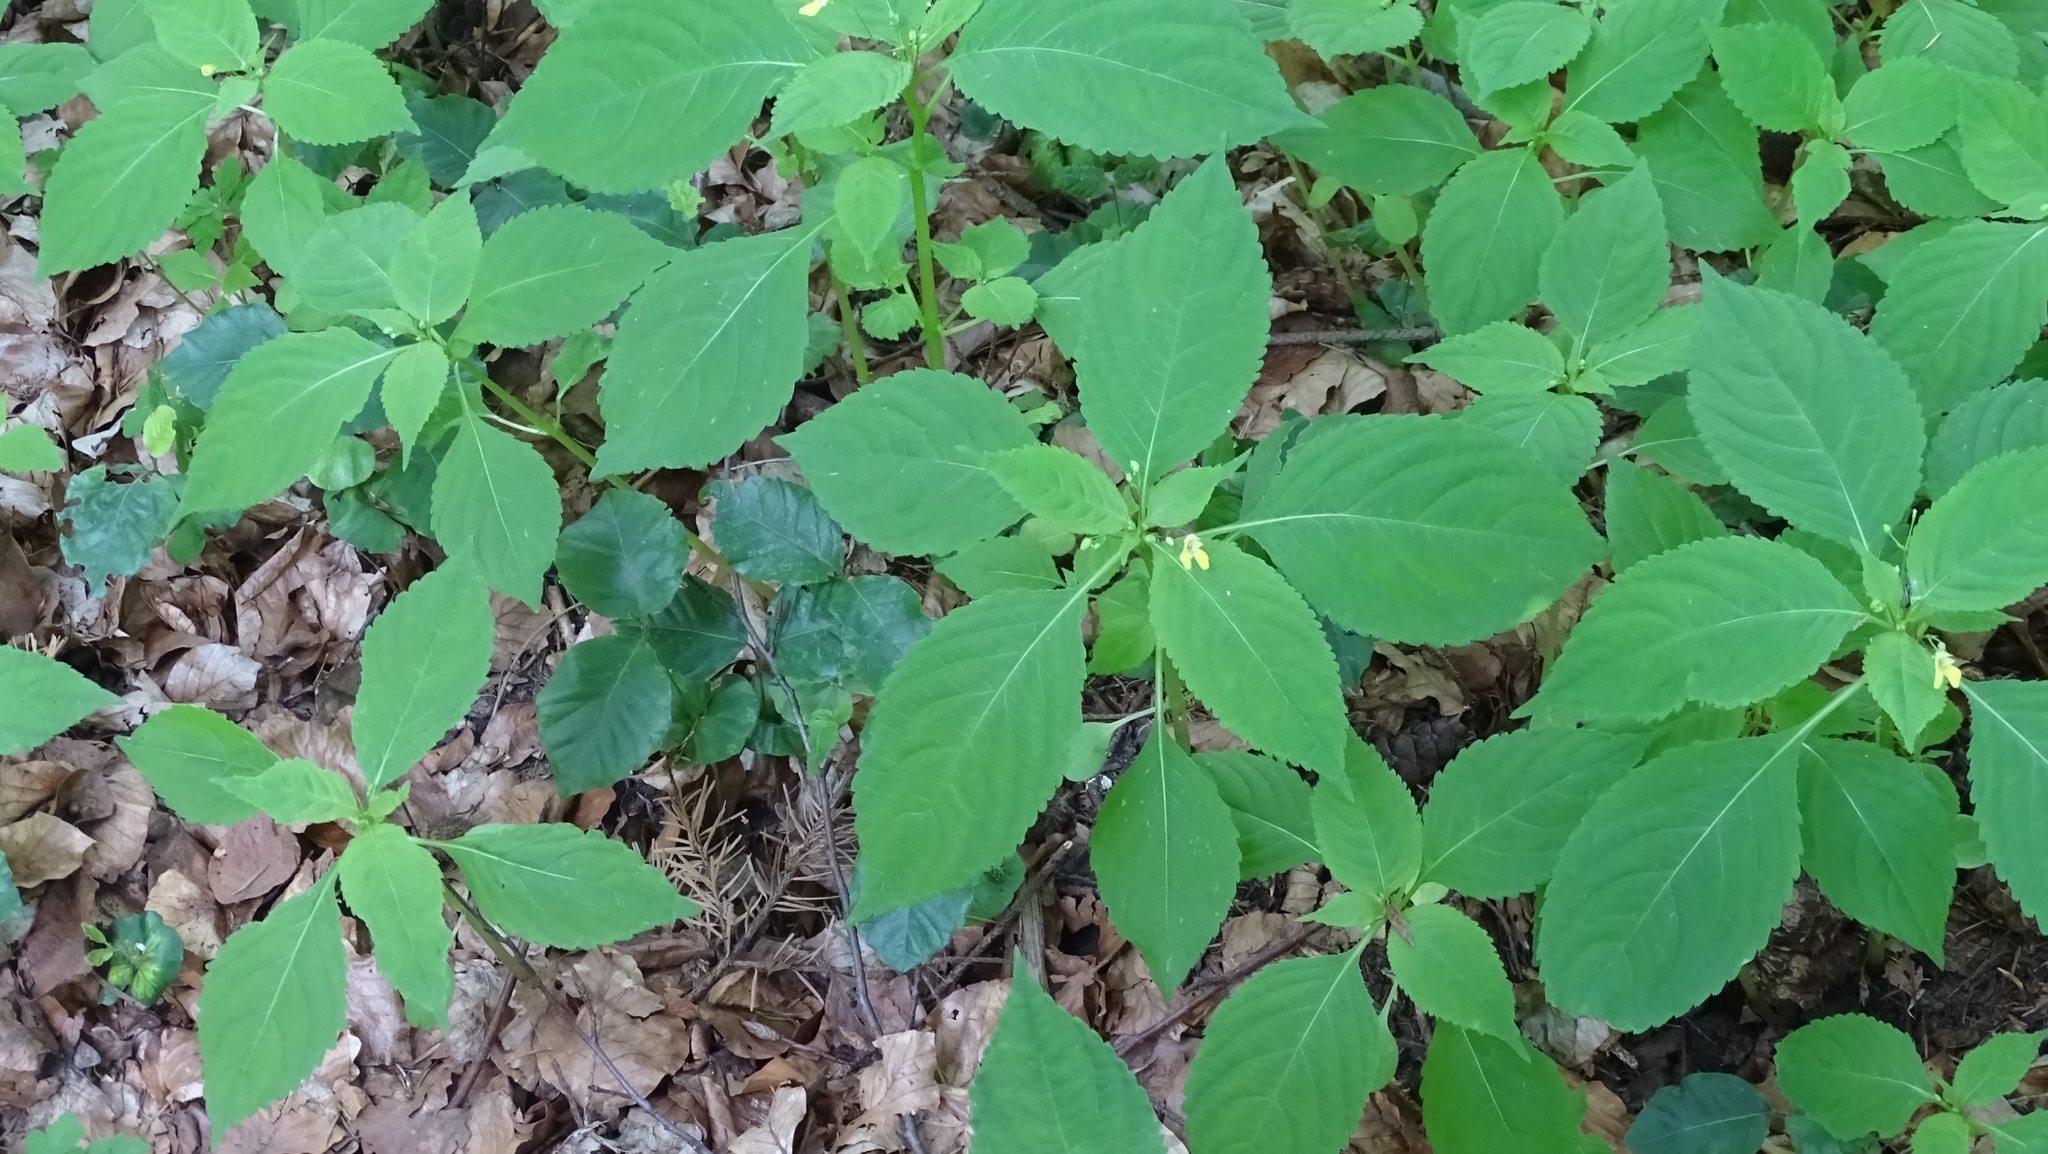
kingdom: Plantae
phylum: Tracheophyta
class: Magnoliopsida
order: Ericales
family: Balsaminaceae
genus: Impatiens
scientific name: Impatiens parviflora
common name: Small balsam
